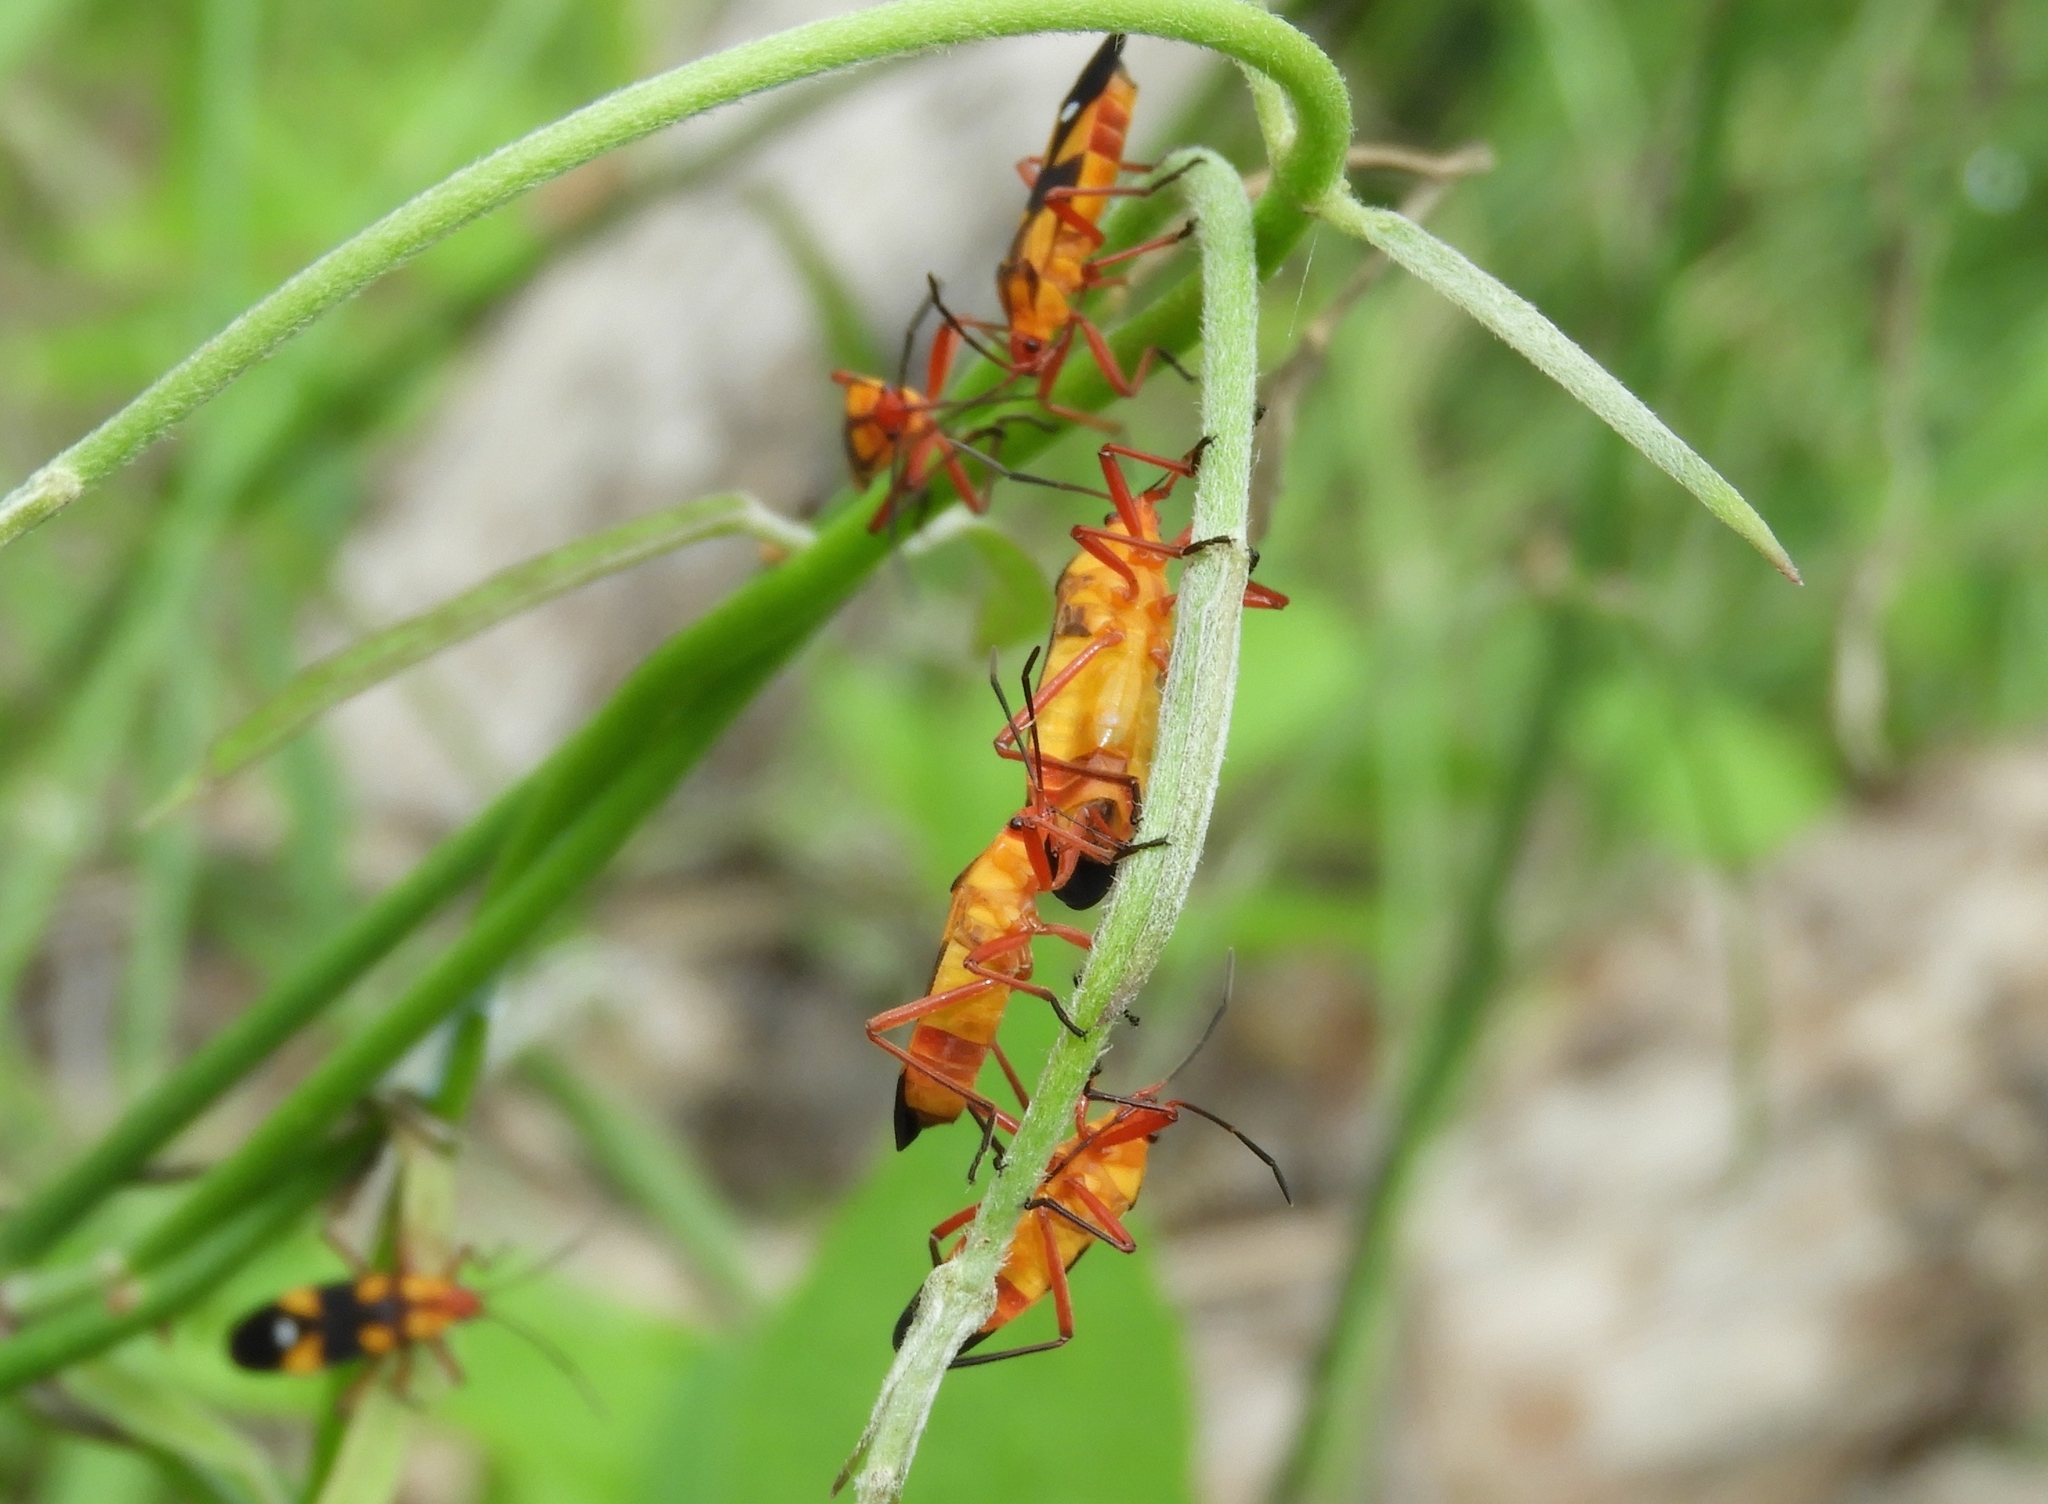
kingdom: Animalia
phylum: Arthropoda
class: Insecta
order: Hemiptera
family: Lygaeidae
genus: Oncopeltus
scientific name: Oncopeltus guttaloides
